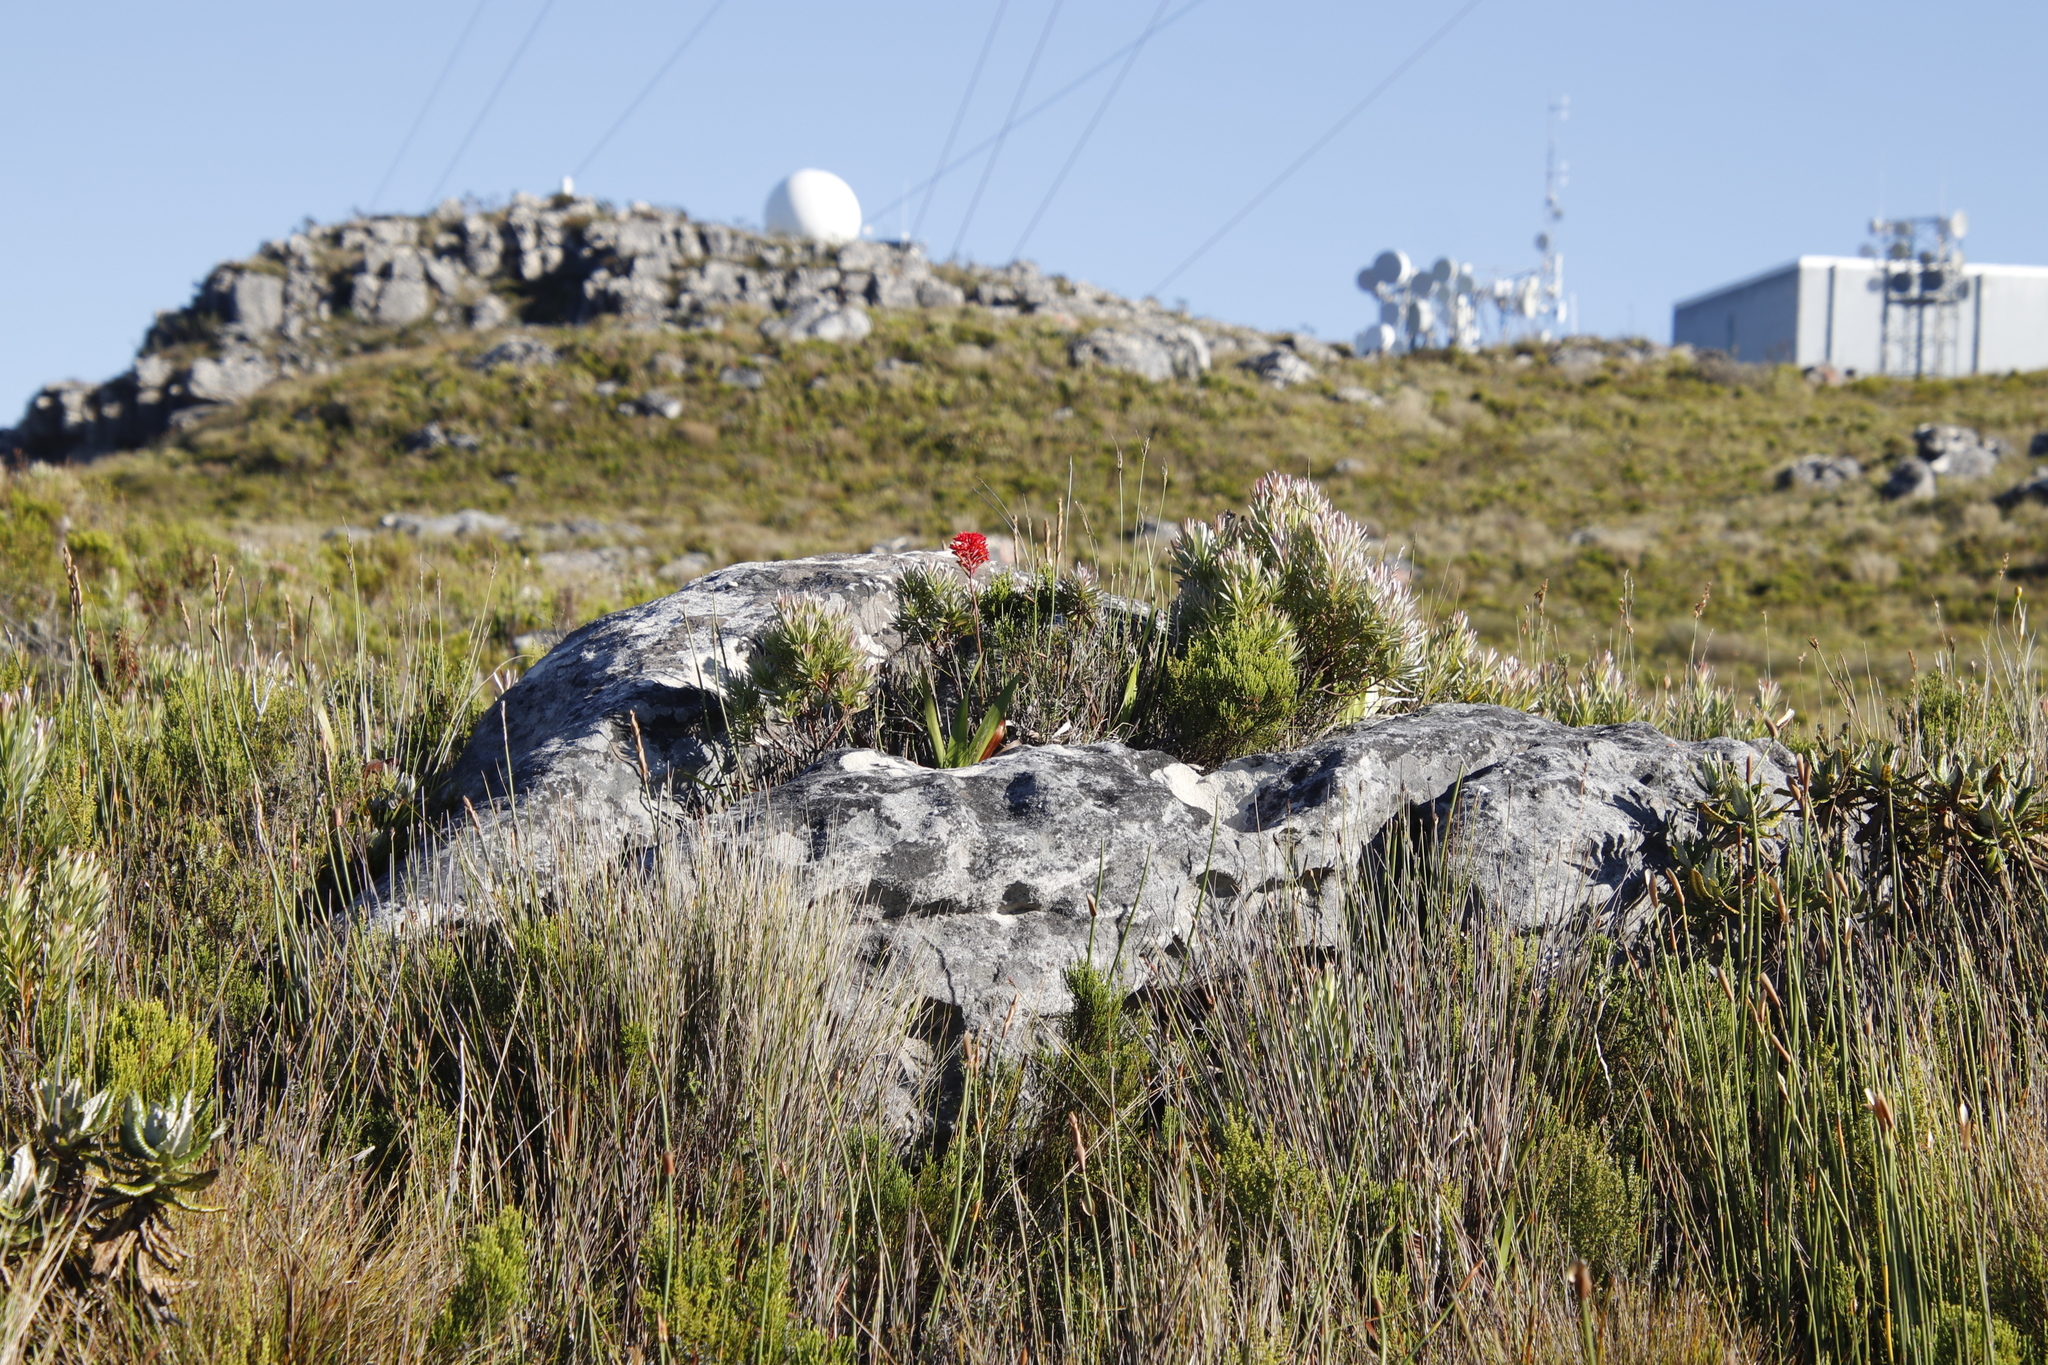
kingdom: Plantae
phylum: Tracheophyta
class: Liliopsida
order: Asparagales
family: Orchidaceae
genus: Disa
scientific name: Disa ferruginea
